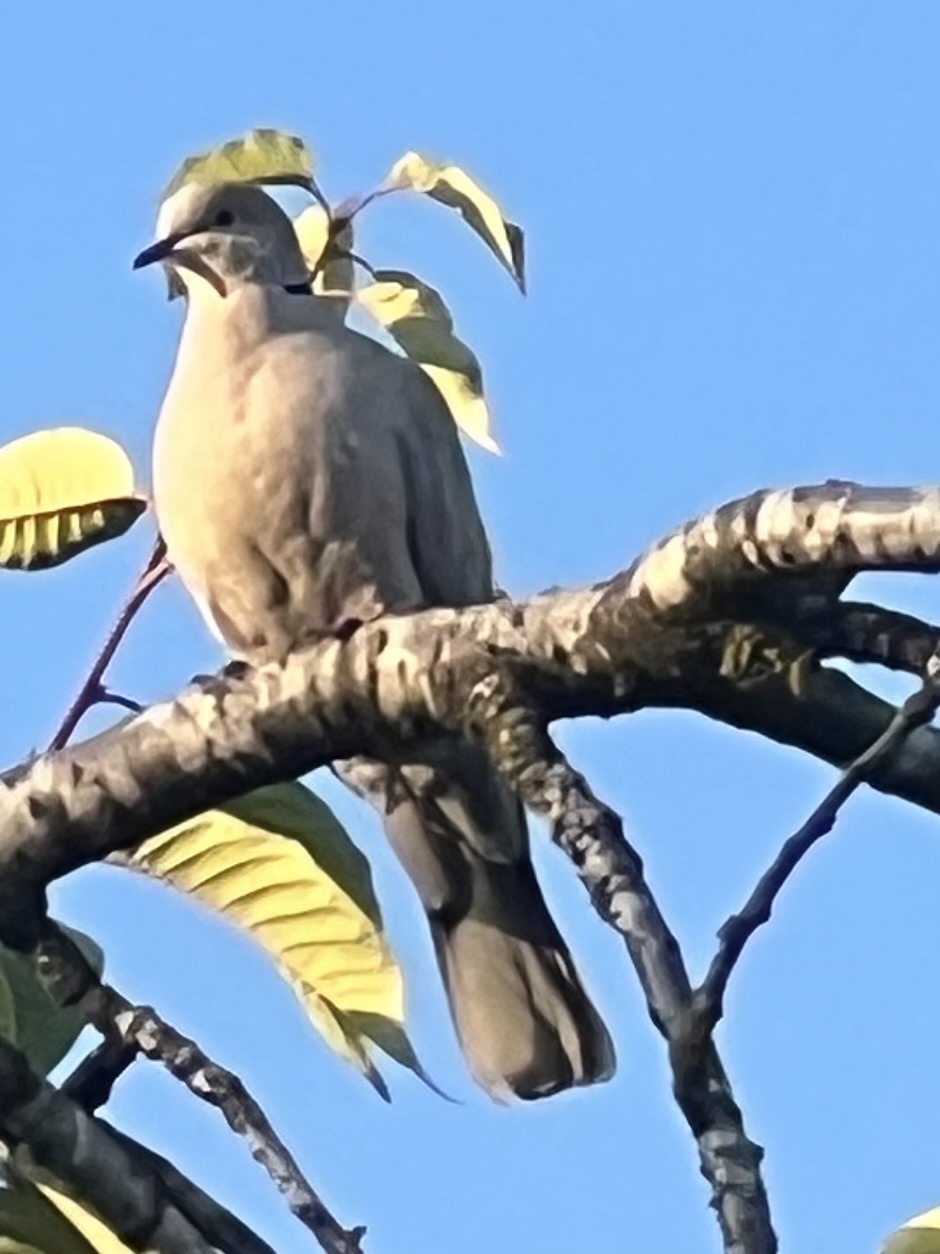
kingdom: Animalia
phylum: Chordata
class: Aves
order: Columbiformes
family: Columbidae
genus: Streptopelia
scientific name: Streptopelia decaocto
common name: Eurasian collared dove
